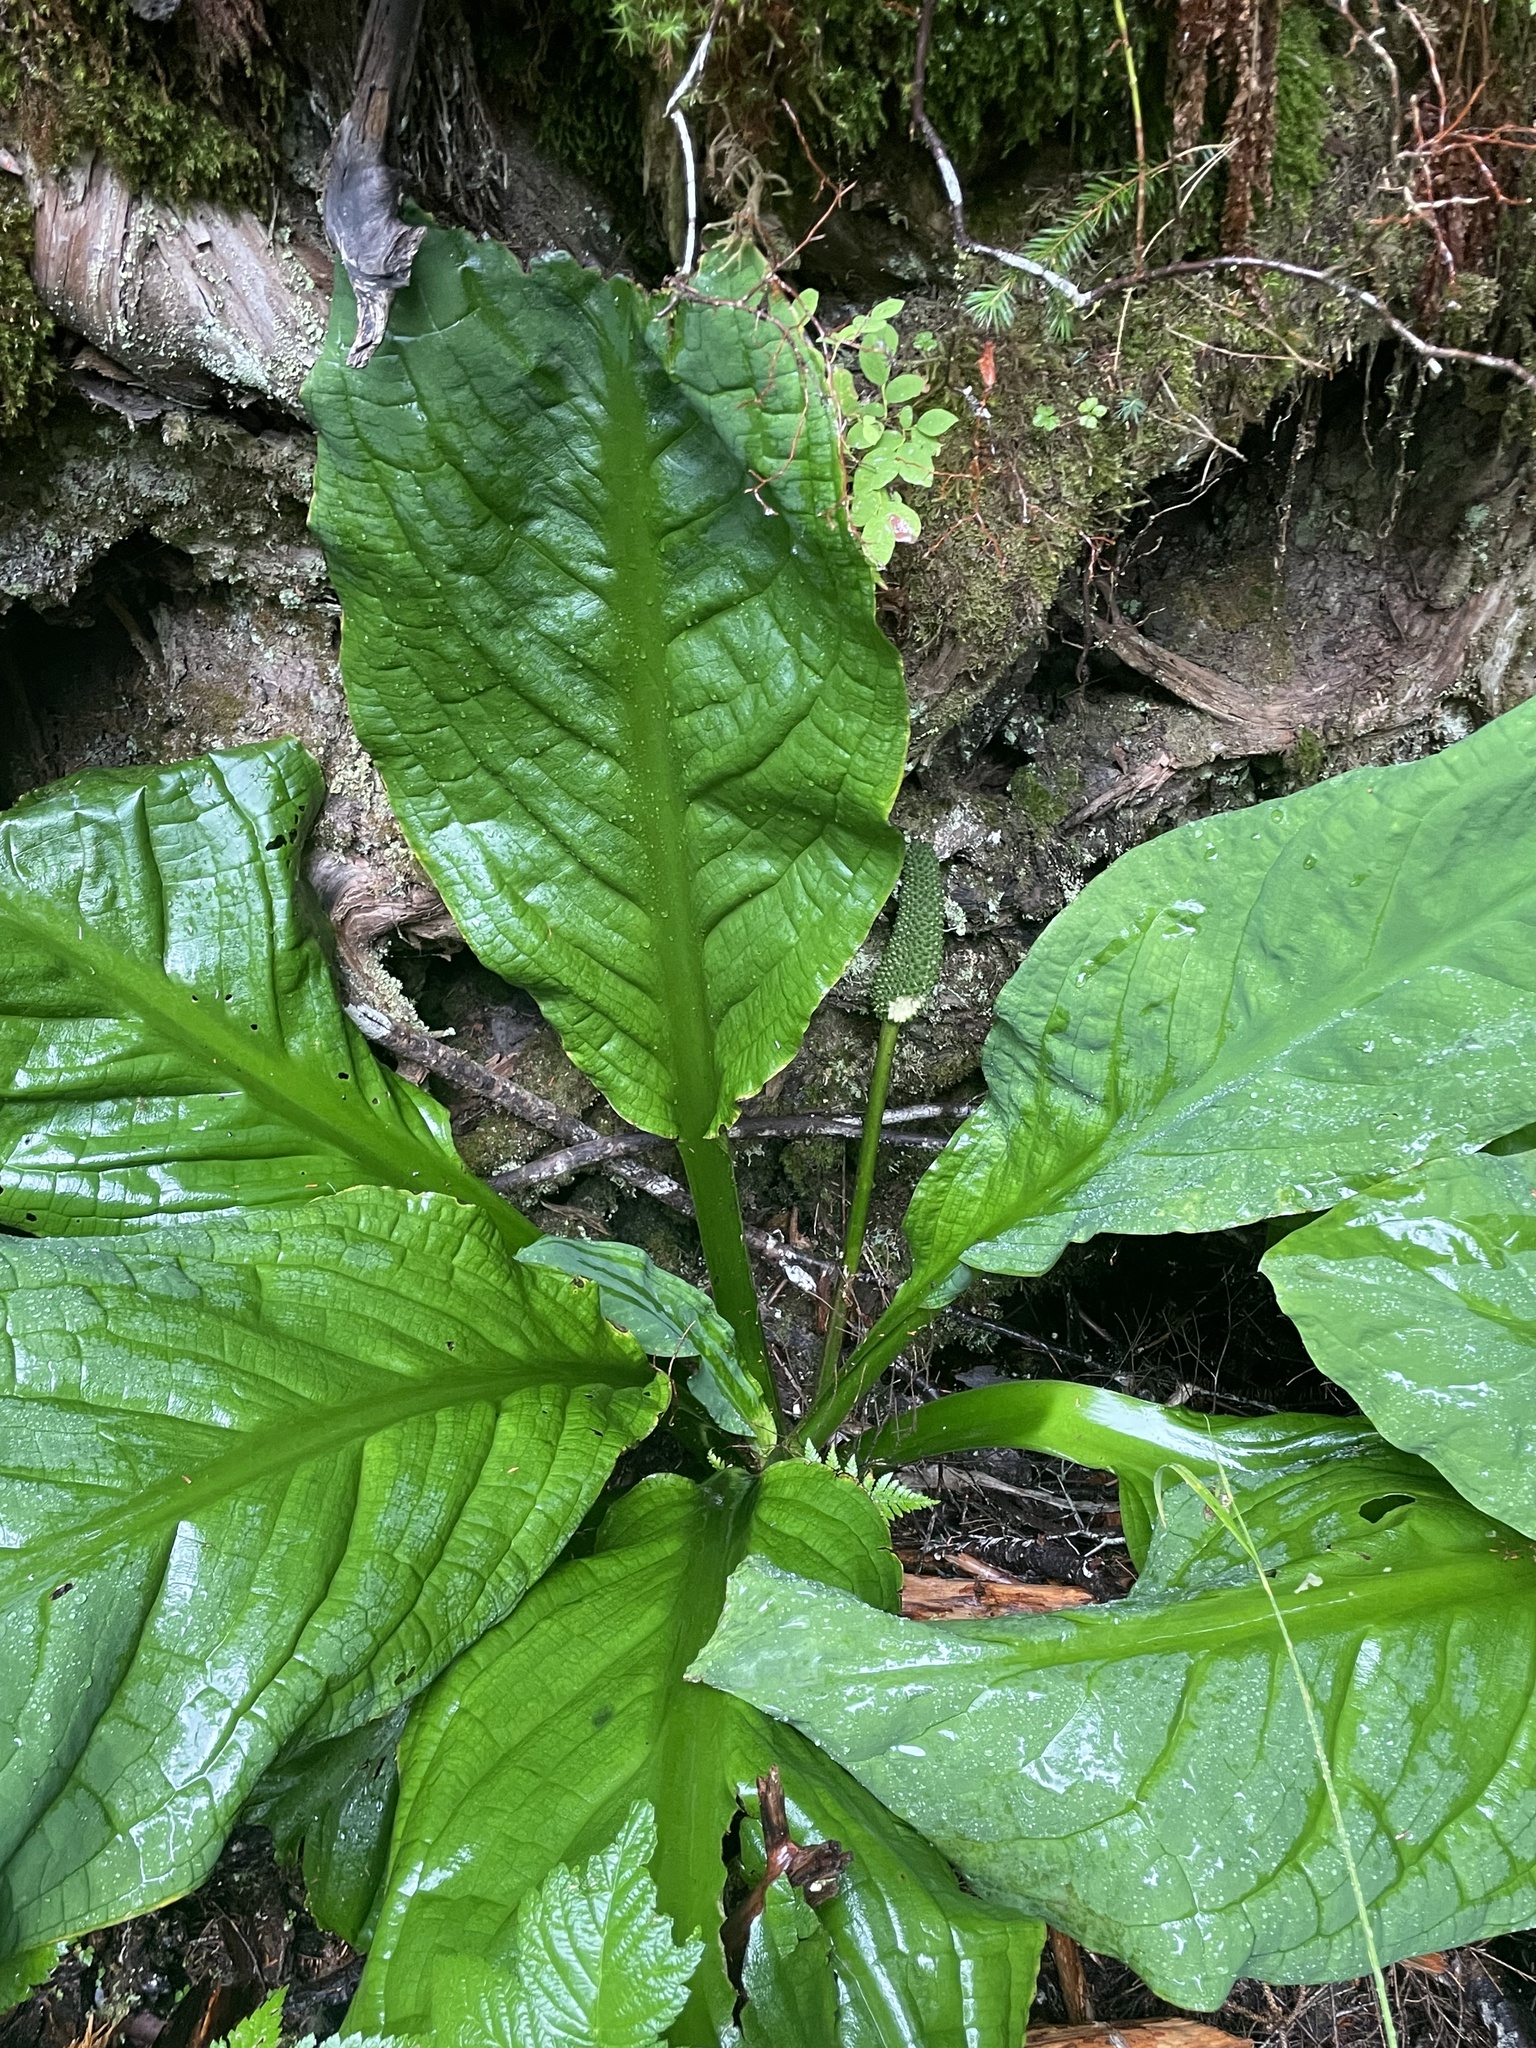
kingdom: Plantae
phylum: Tracheophyta
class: Liliopsida
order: Alismatales
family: Araceae
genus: Lysichiton
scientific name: Lysichiton americanus
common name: American skunk cabbage
